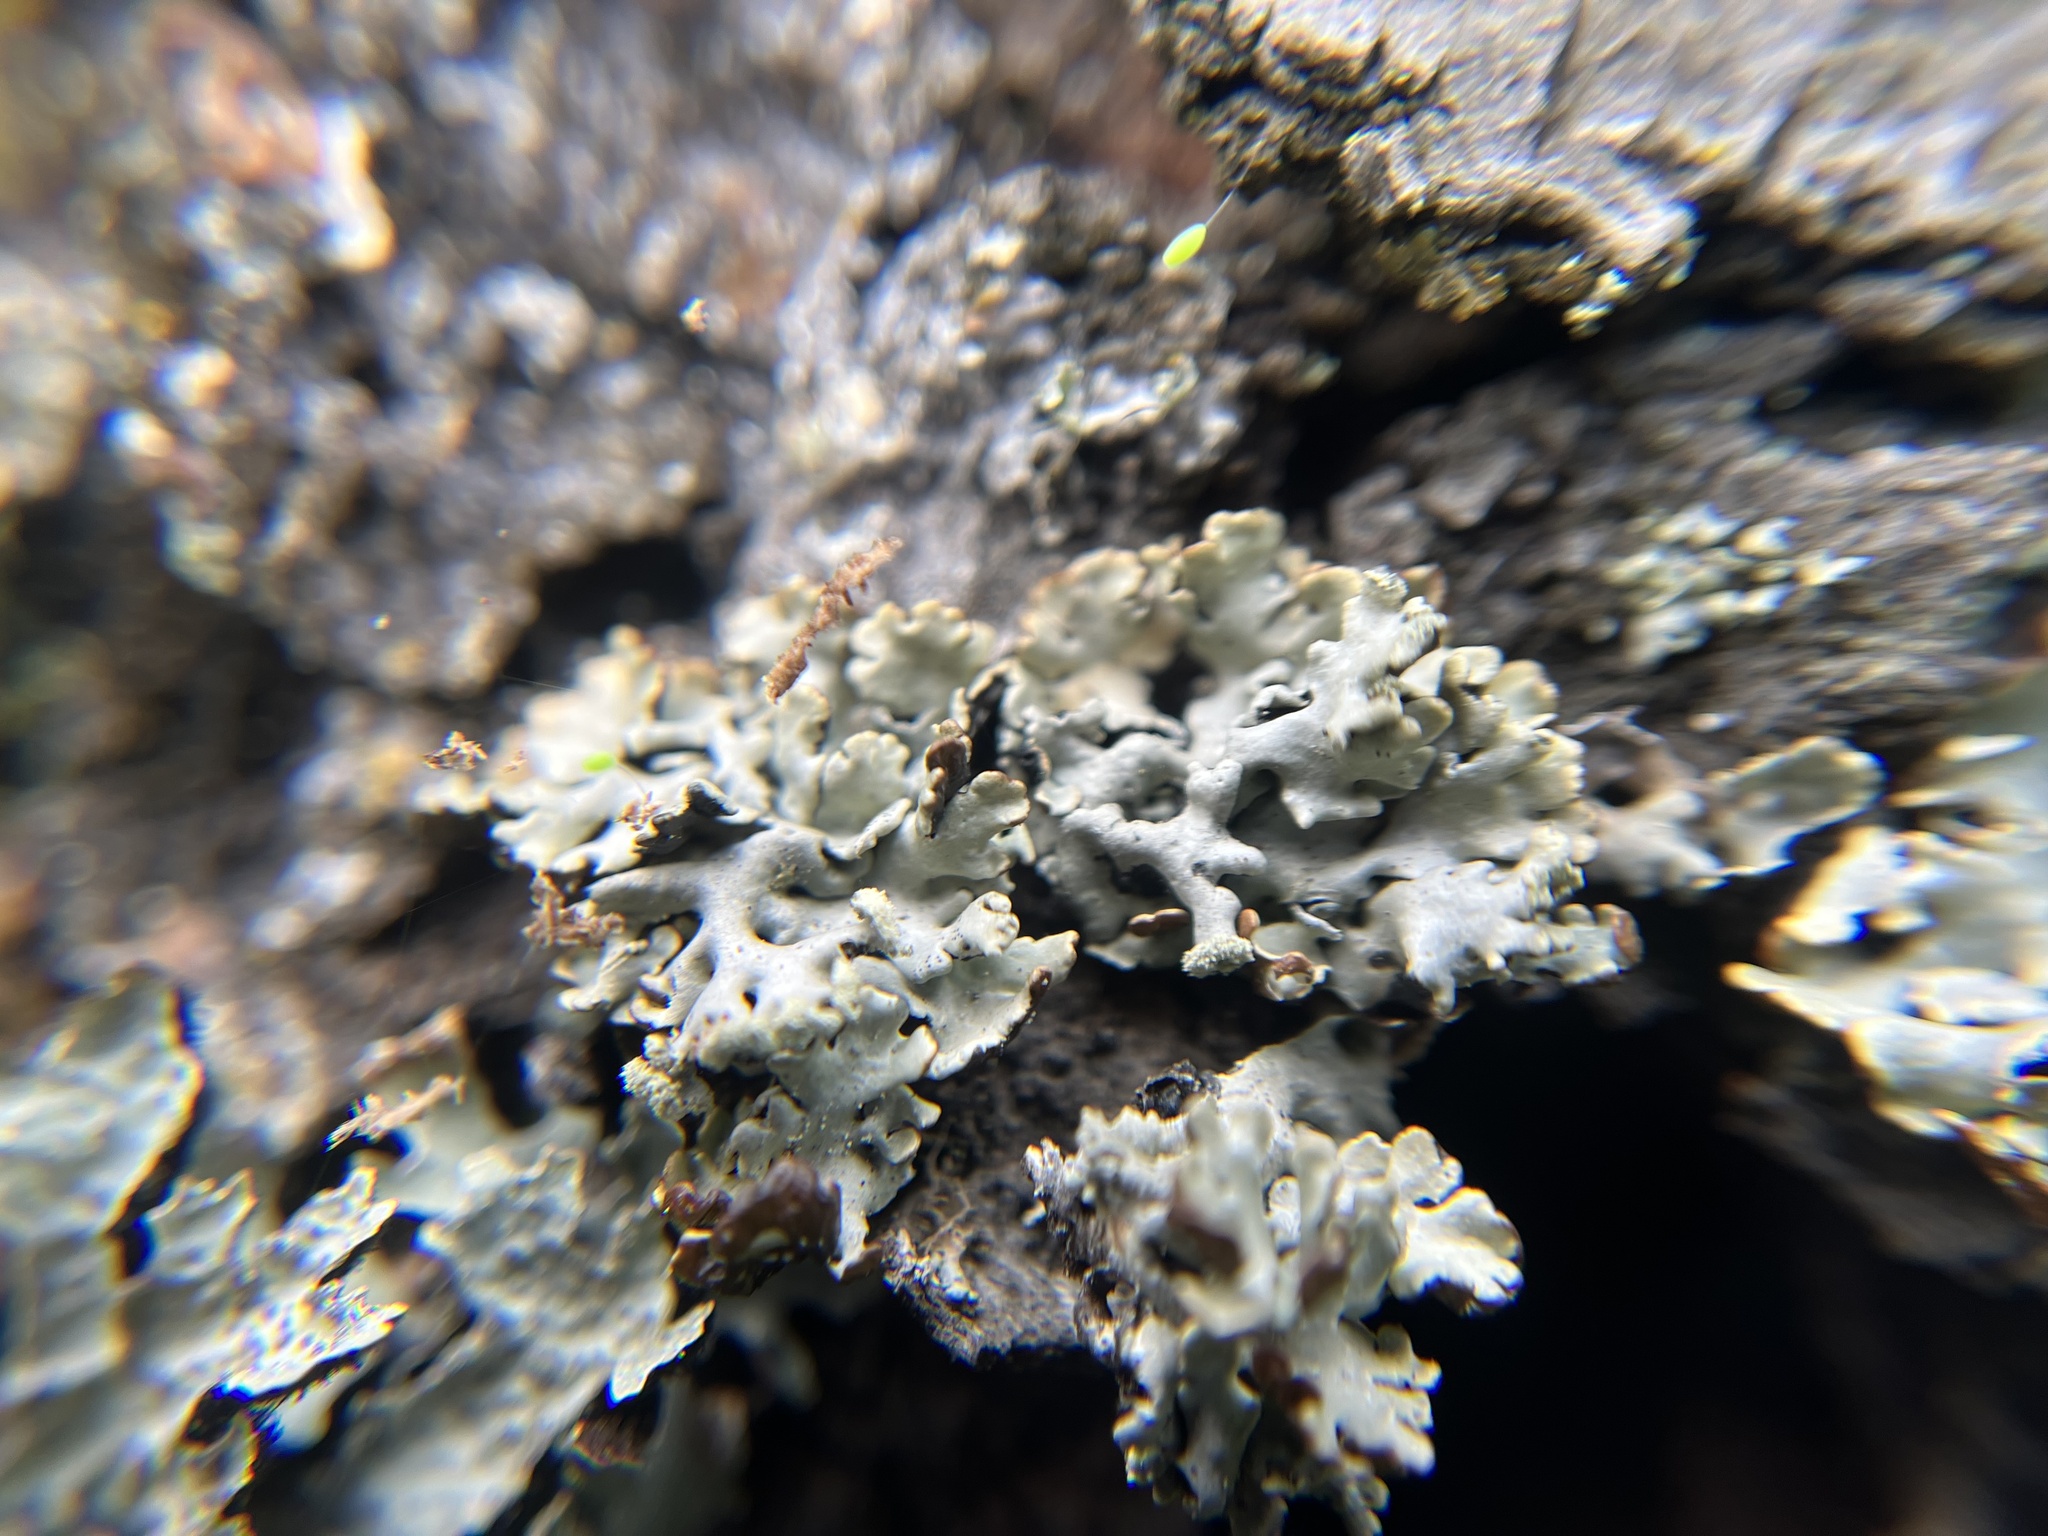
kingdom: Fungi
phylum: Ascomycota
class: Lecanoromycetes
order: Lecanorales
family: Parmeliaceae
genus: Hypogymnia
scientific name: Hypogymnia physodes
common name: Dark crottle
